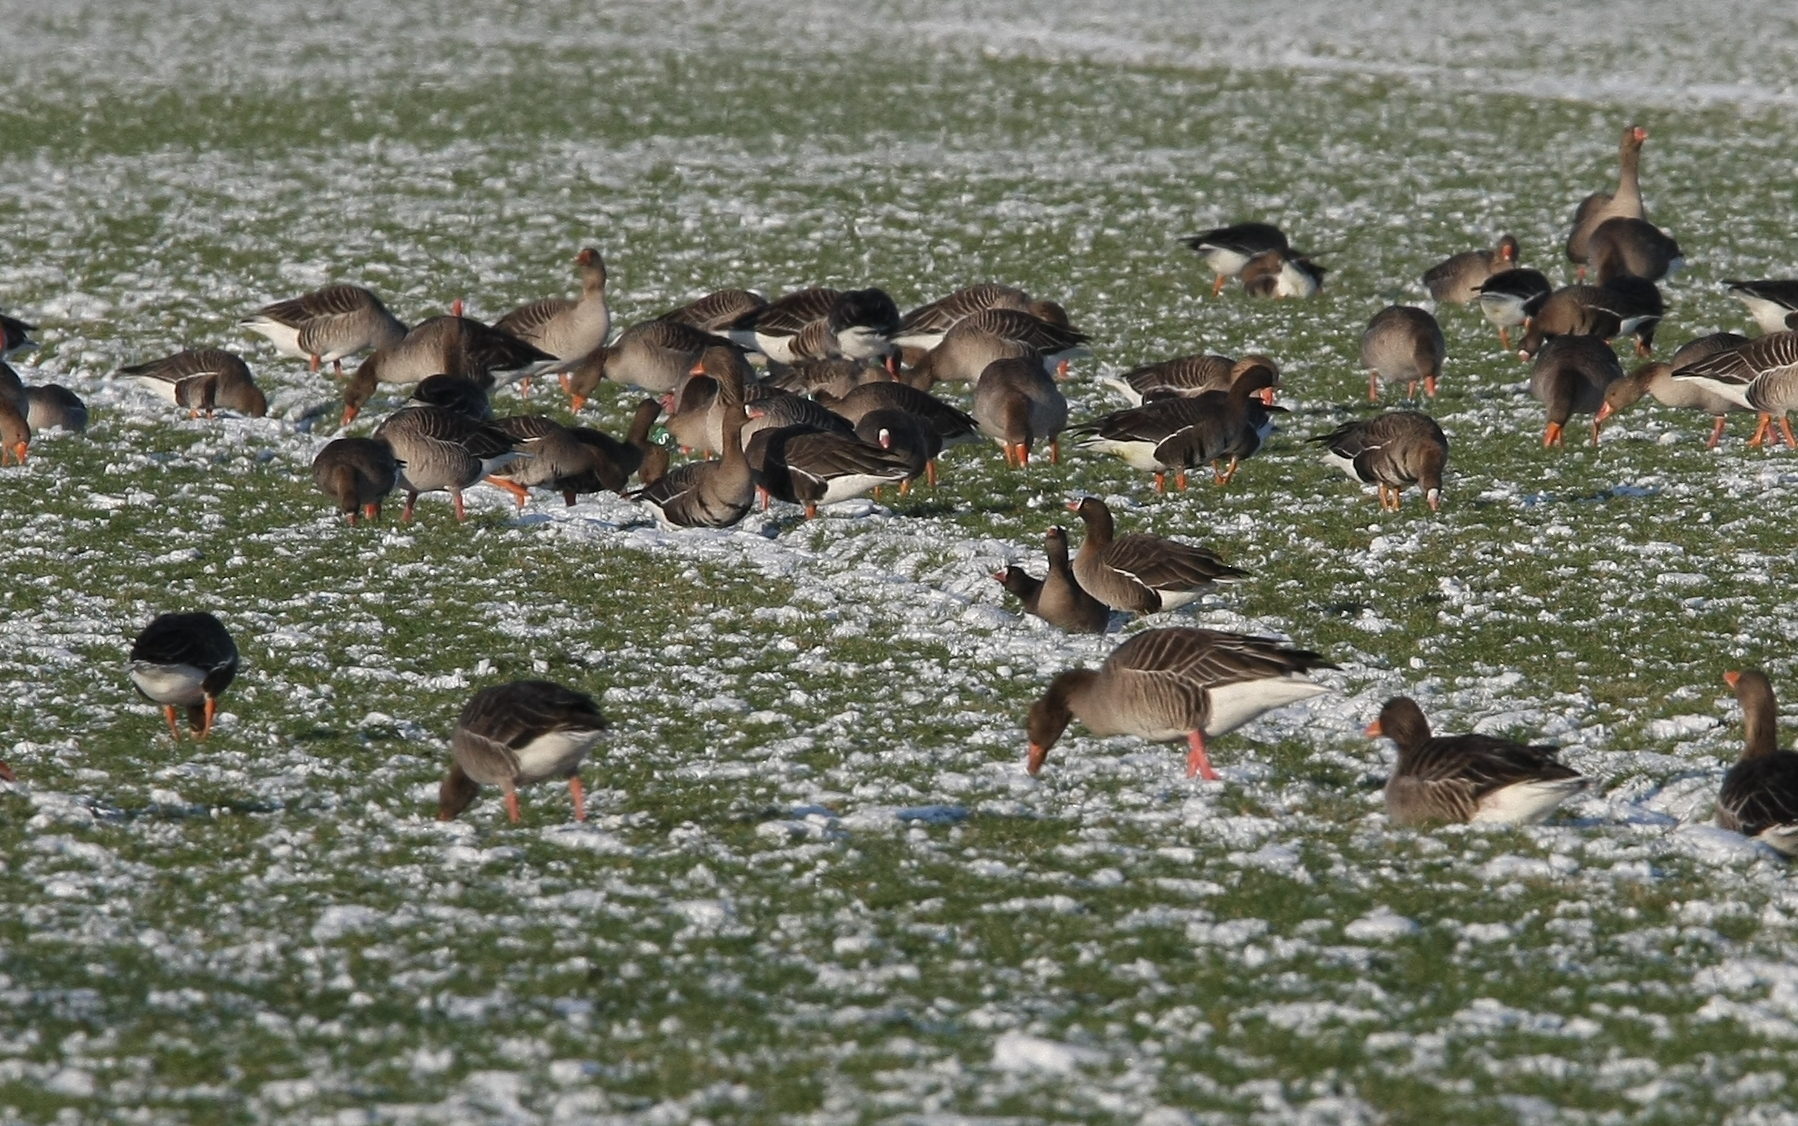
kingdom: Animalia
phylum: Chordata
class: Aves
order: Anseriformes
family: Anatidae
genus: Anser
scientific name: Anser erythropus
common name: Lesser white-fronted goose
